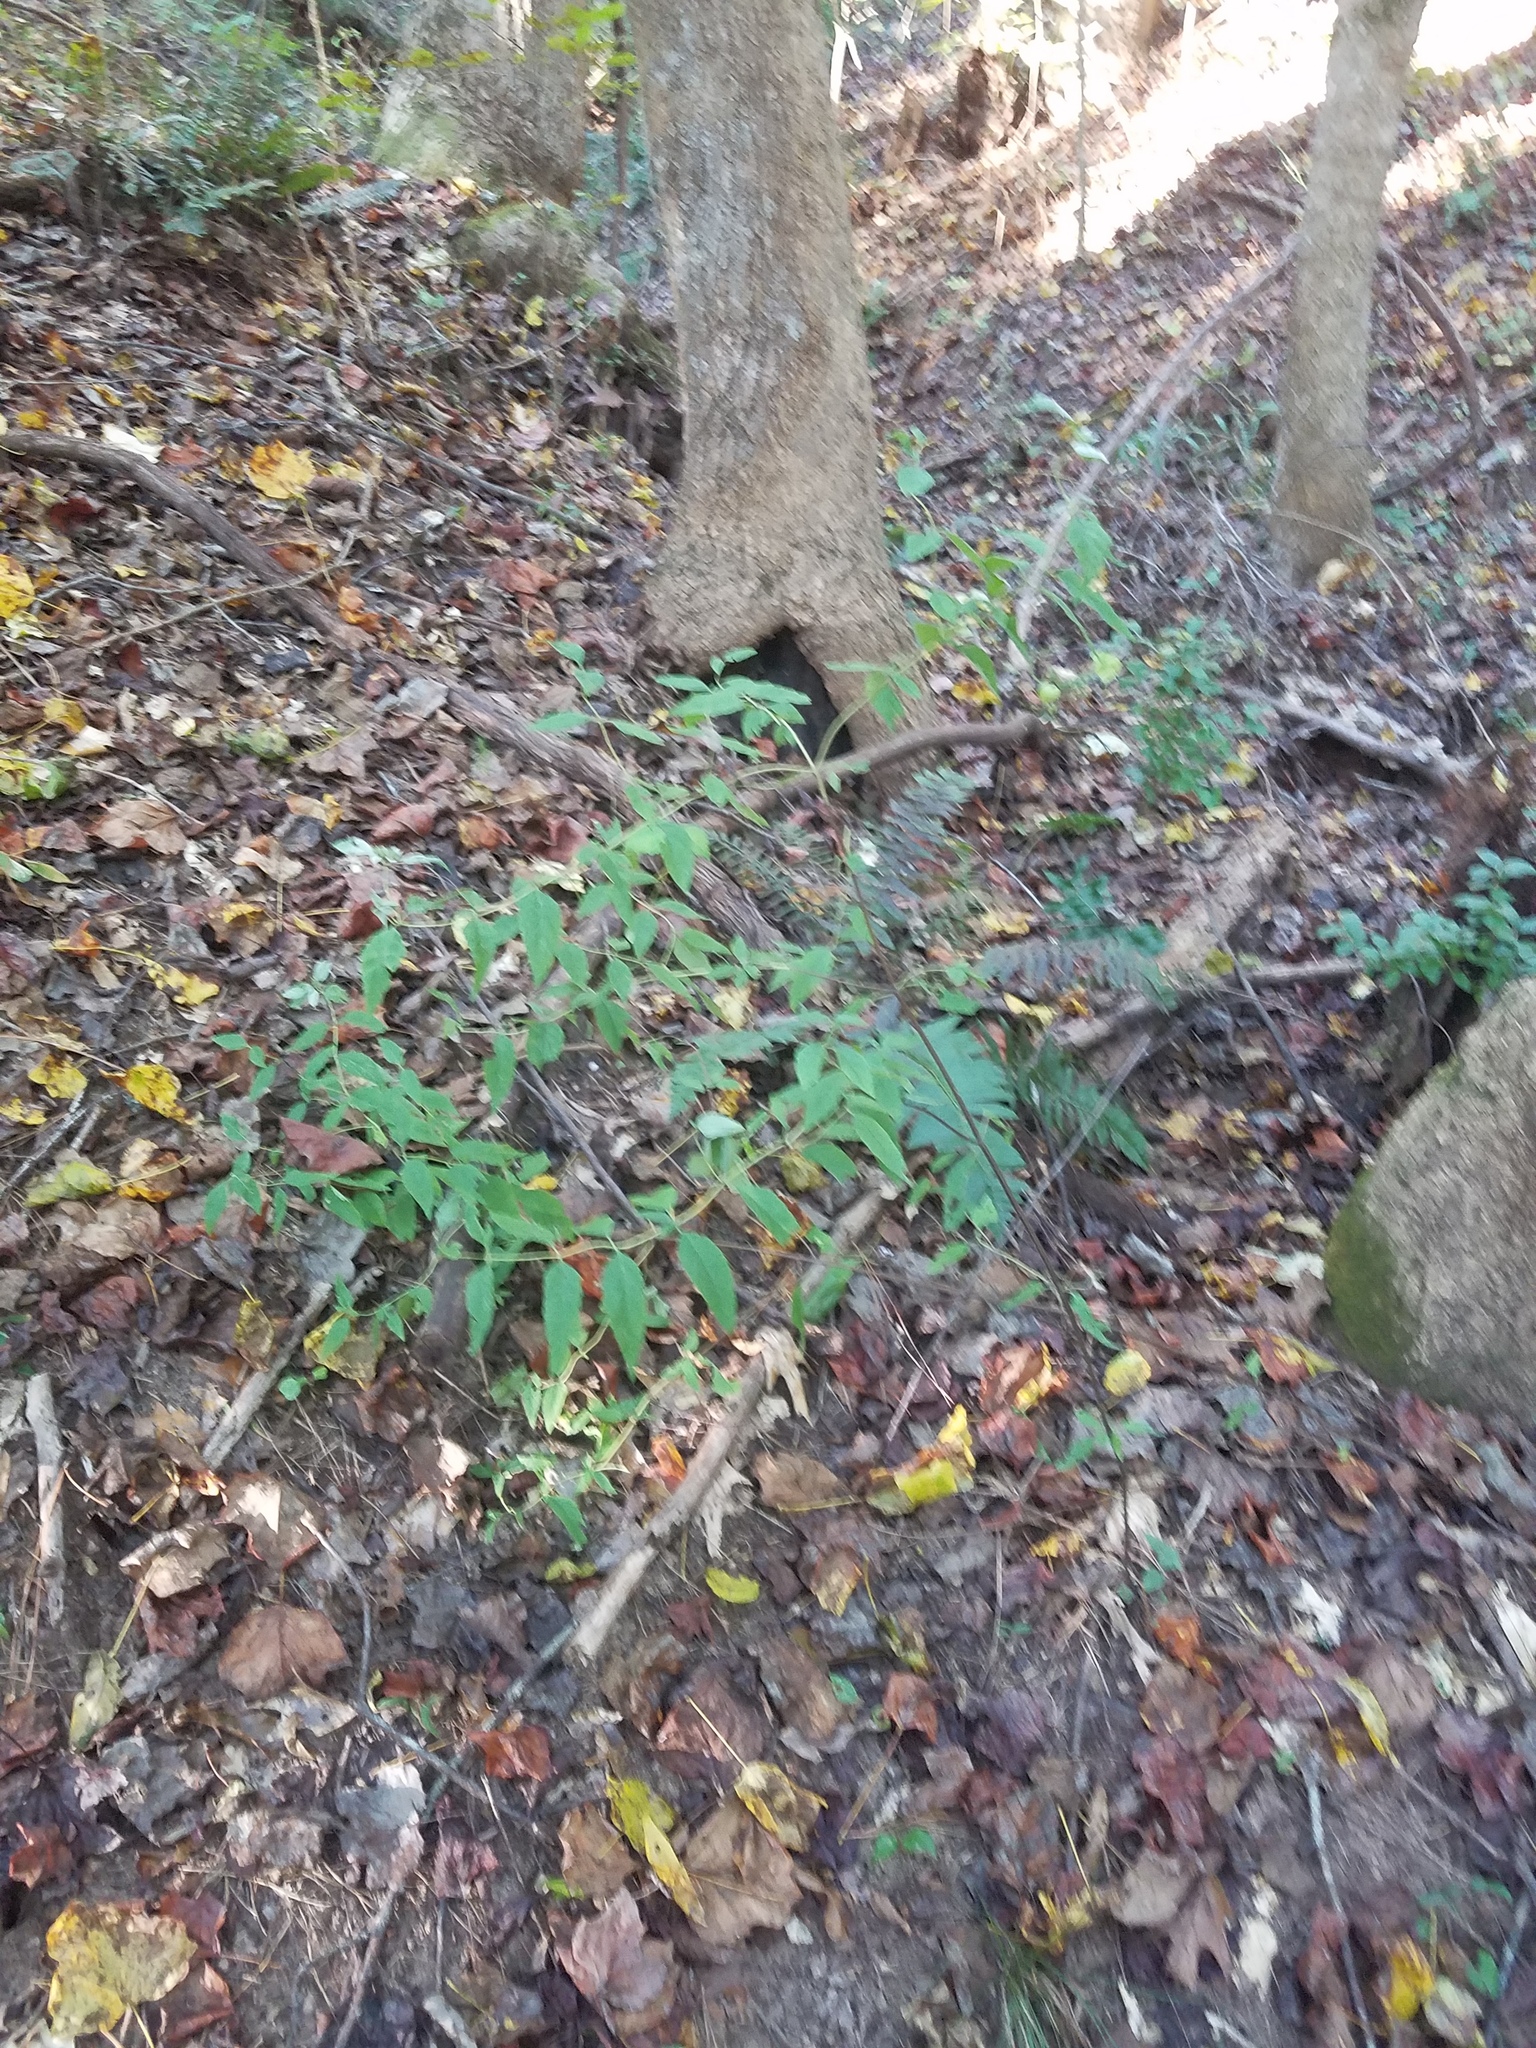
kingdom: Plantae
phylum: Tracheophyta
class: Magnoliopsida
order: Lamiales
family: Lamiaceae
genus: Pycnanthemum
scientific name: Pycnanthemum loomisii
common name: Loomis's mountain-mint
